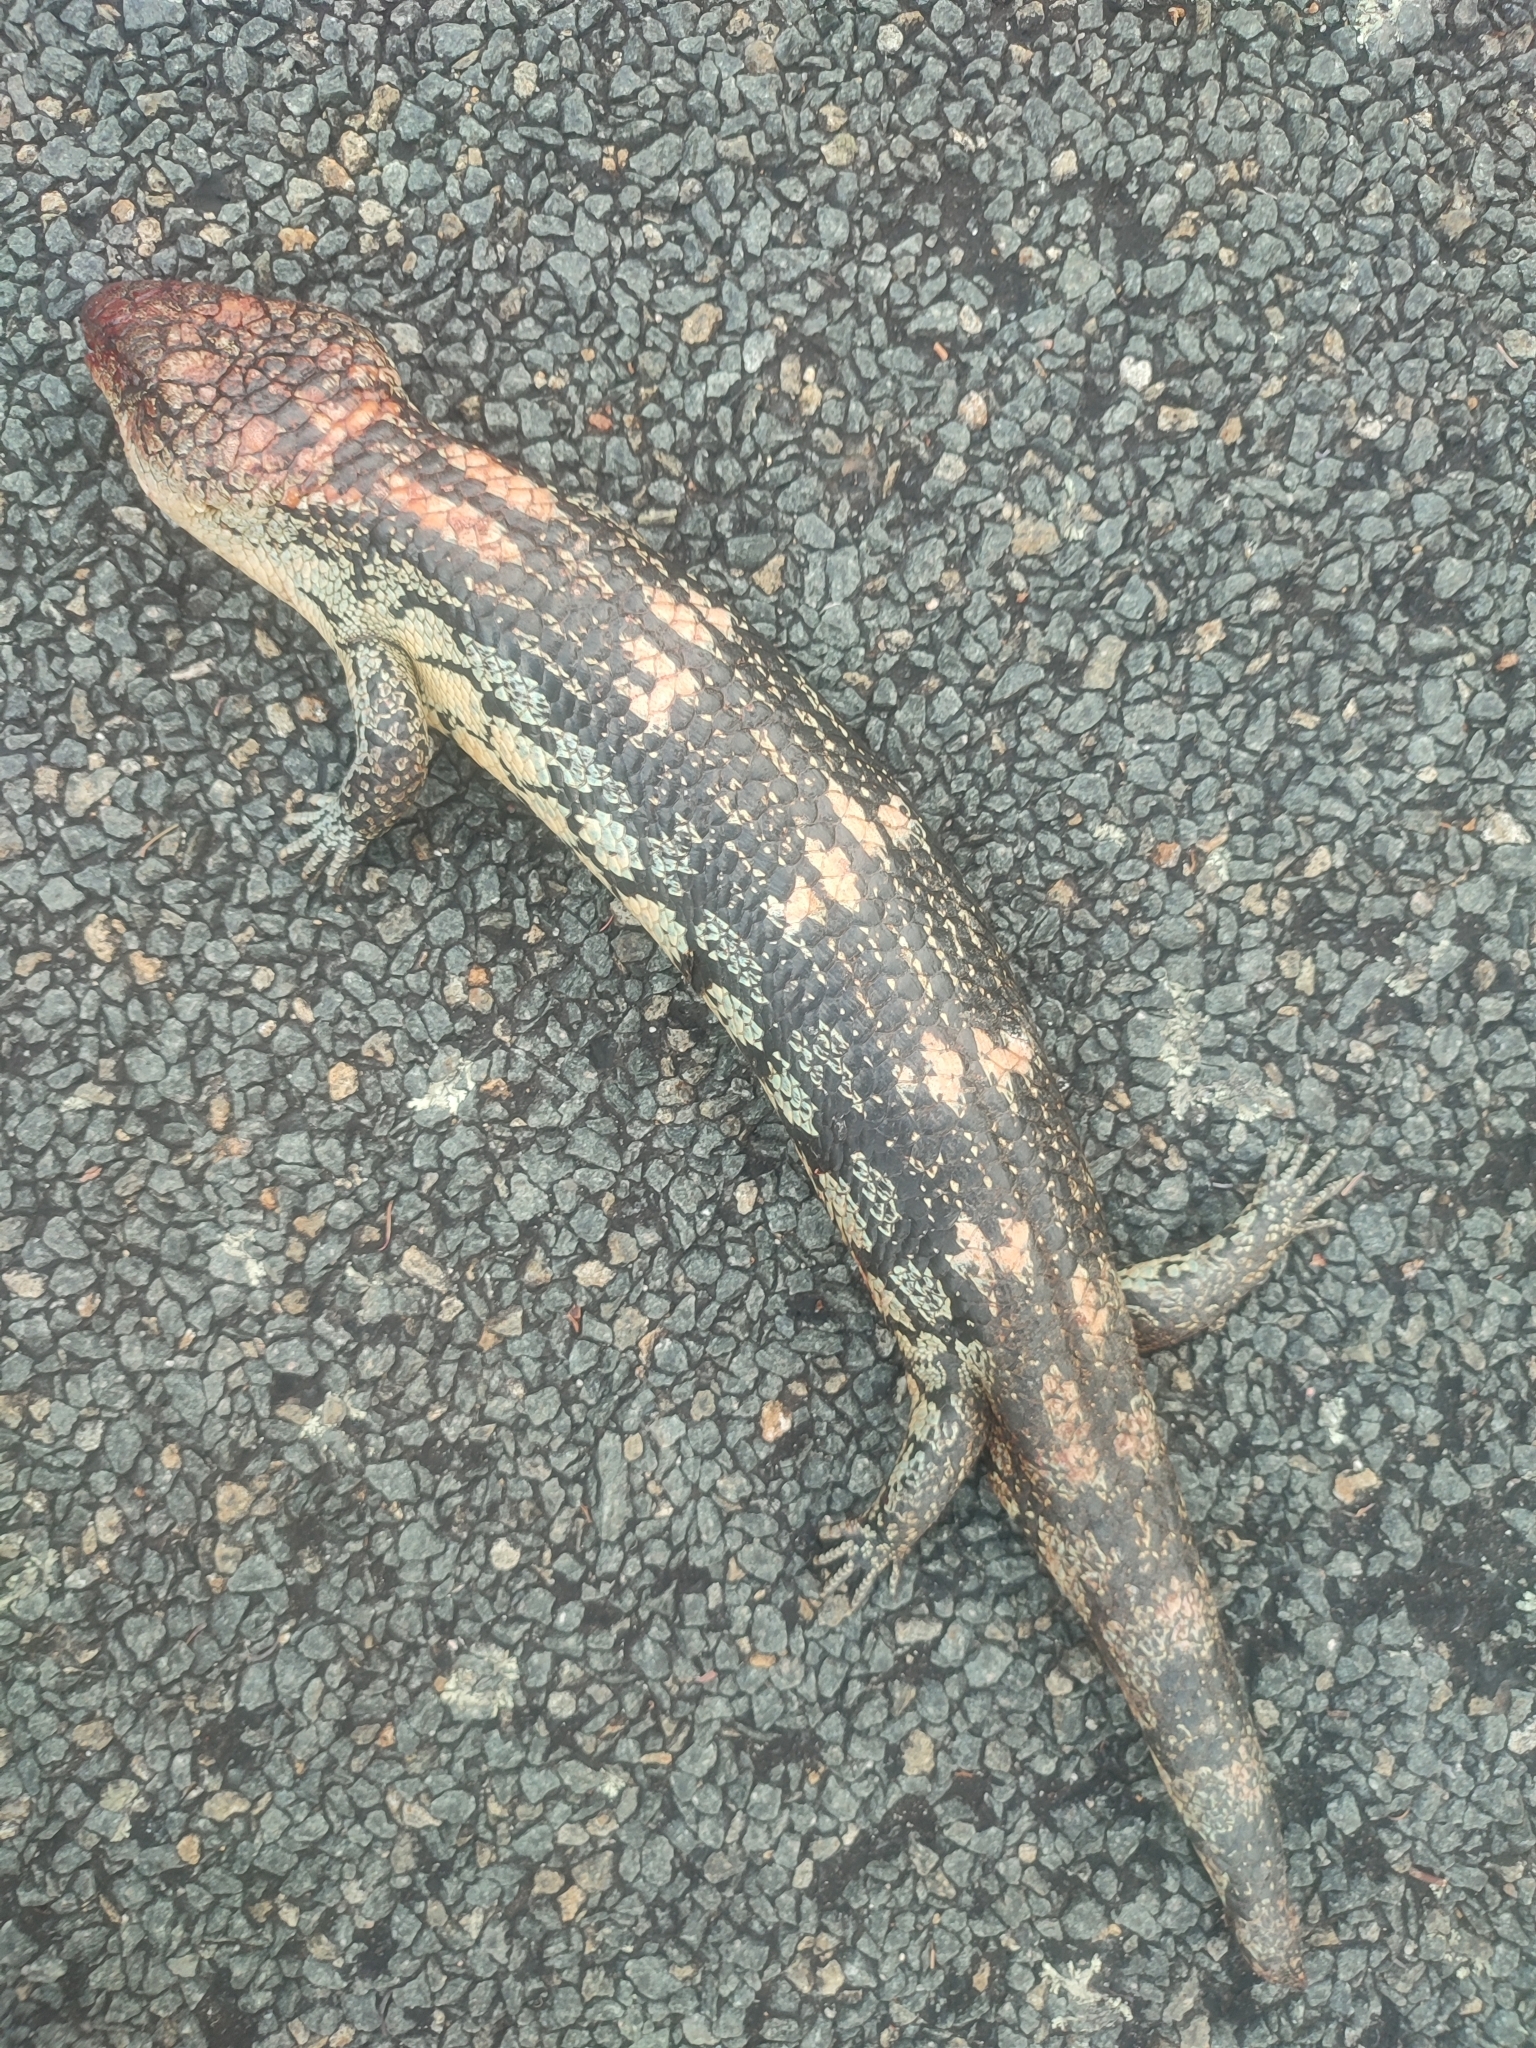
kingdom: Animalia
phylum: Chordata
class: Squamata
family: Scincidae
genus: Tiliqua
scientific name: Tiliqua nigrolutea
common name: Blotched blue-tongued lizard
